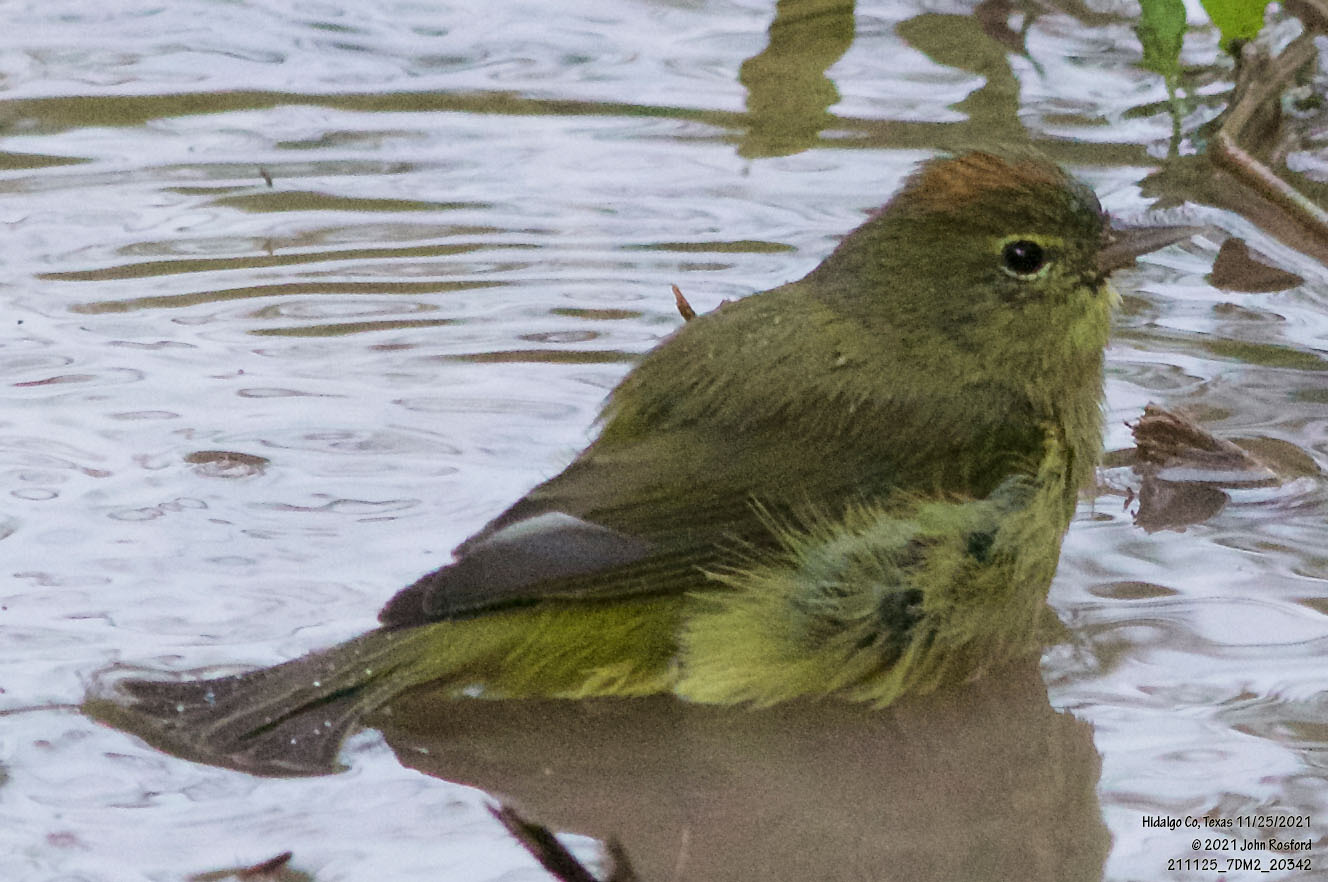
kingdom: Animalia
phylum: Chordata
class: Aves
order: Passeriformes
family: Parulidae
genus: Leiothlypis
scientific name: Leiothlypis celata
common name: Orange-crowned warbler
